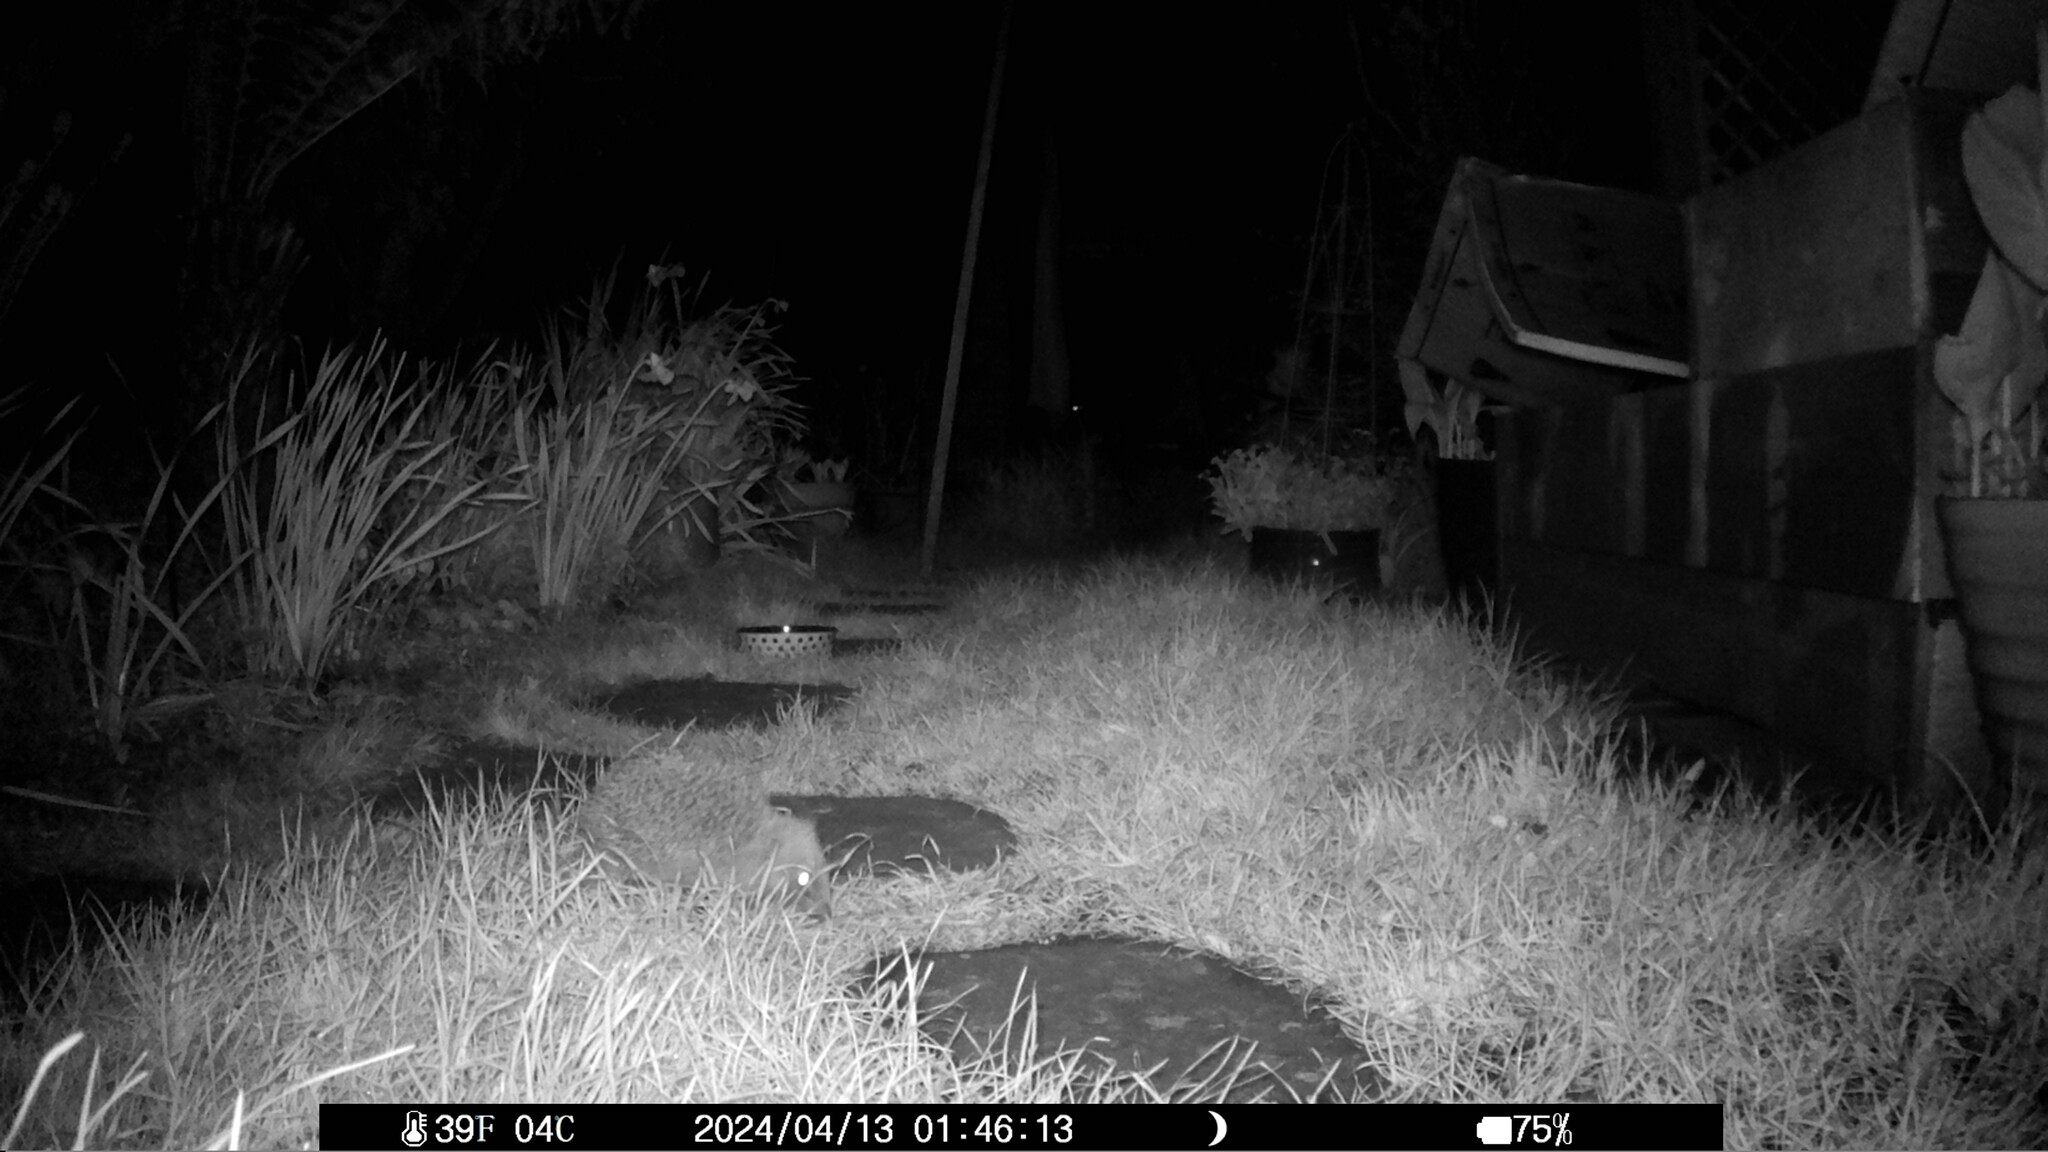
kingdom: Animalia
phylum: Chordata
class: Mammalia
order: Erinaceomorpha
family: Erinaceidae
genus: Erinaceus
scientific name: Erinaceus europaeus
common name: West european hedgehog
